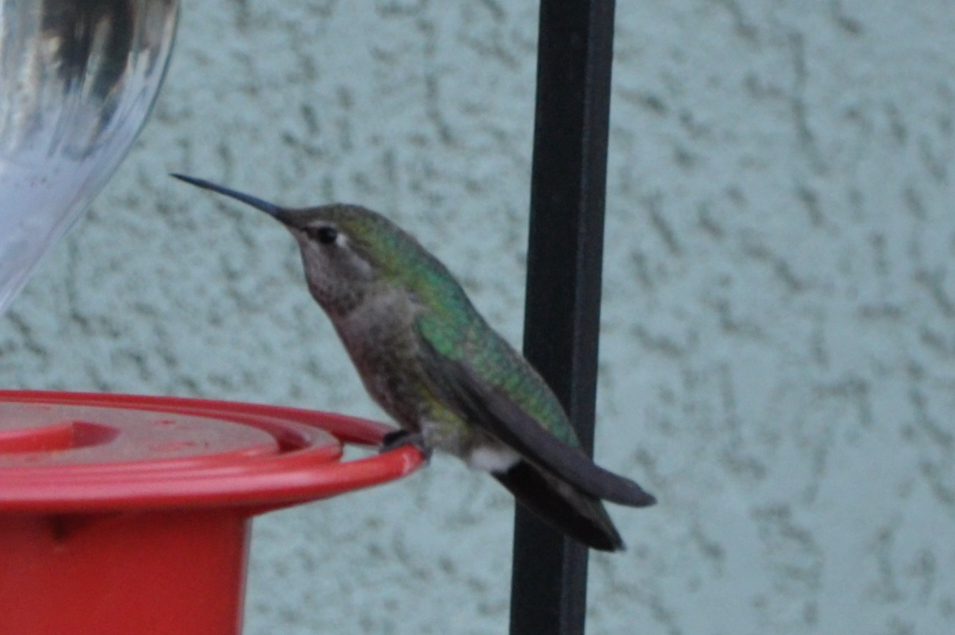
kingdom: Animalia
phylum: Chordata
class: Aves
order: Apodiformes
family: Trochilidae
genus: Calypte
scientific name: Calypte anna
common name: Anna's hummingbird
